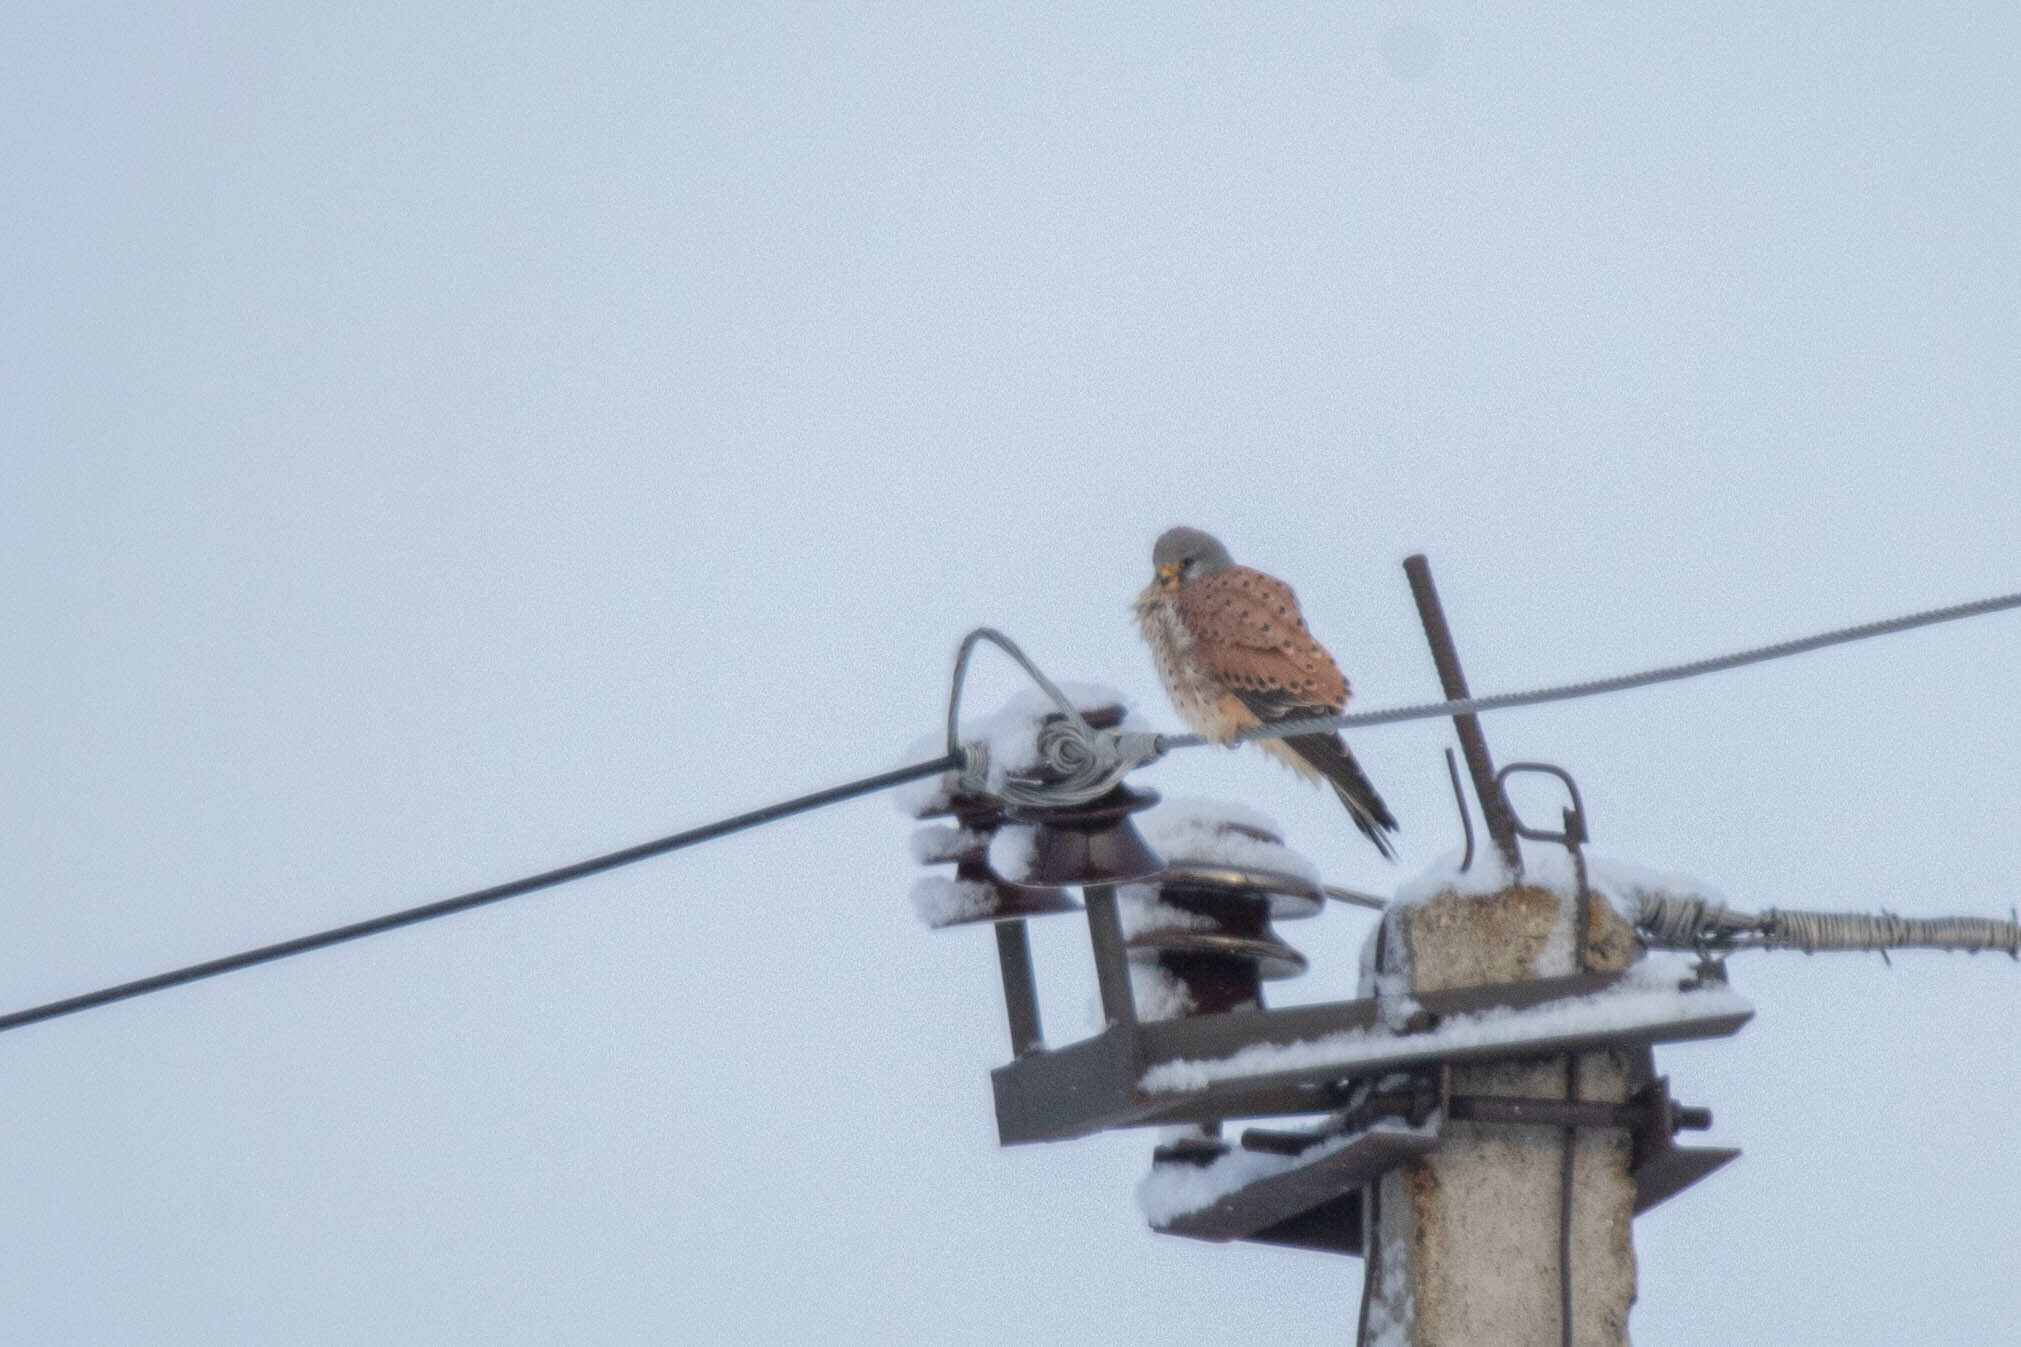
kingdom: Animalia
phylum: Chordata
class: Aves
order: Falconiformes
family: Falconidae
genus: Falco
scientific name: Falco tinnunculus
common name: Common kestrel
